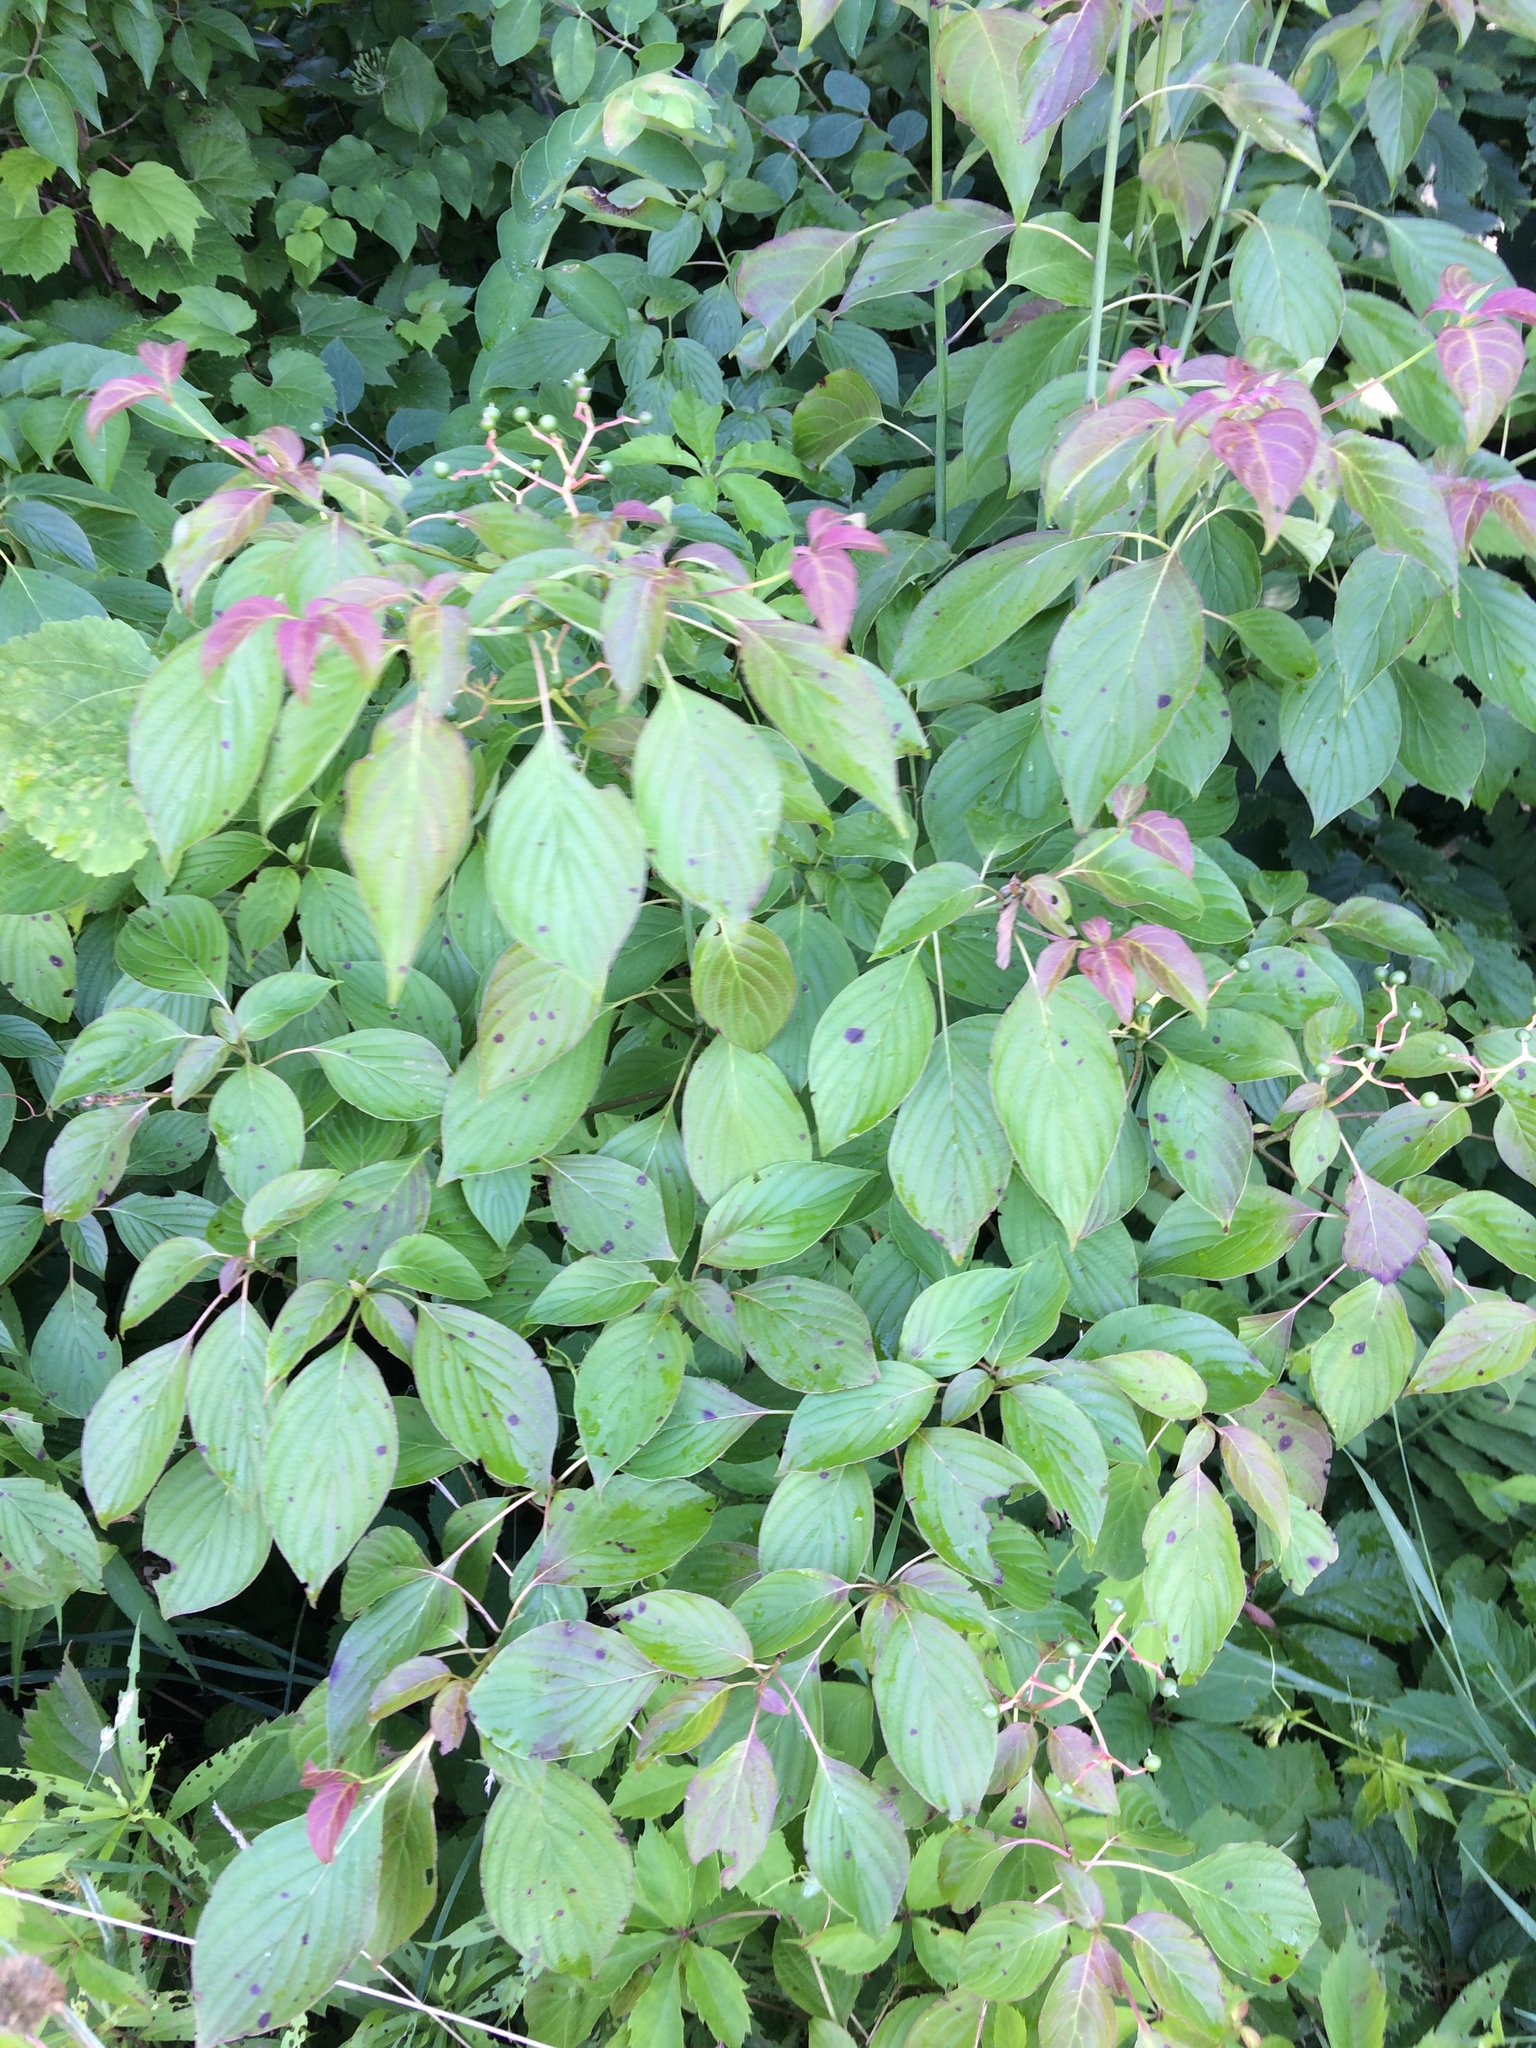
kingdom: Plantae
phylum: Tracheophyta
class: Magnoliopsida
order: Cornales
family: Cornaceae
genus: Cornus
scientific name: Cornus alternifolia
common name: Pagoda dogwood
